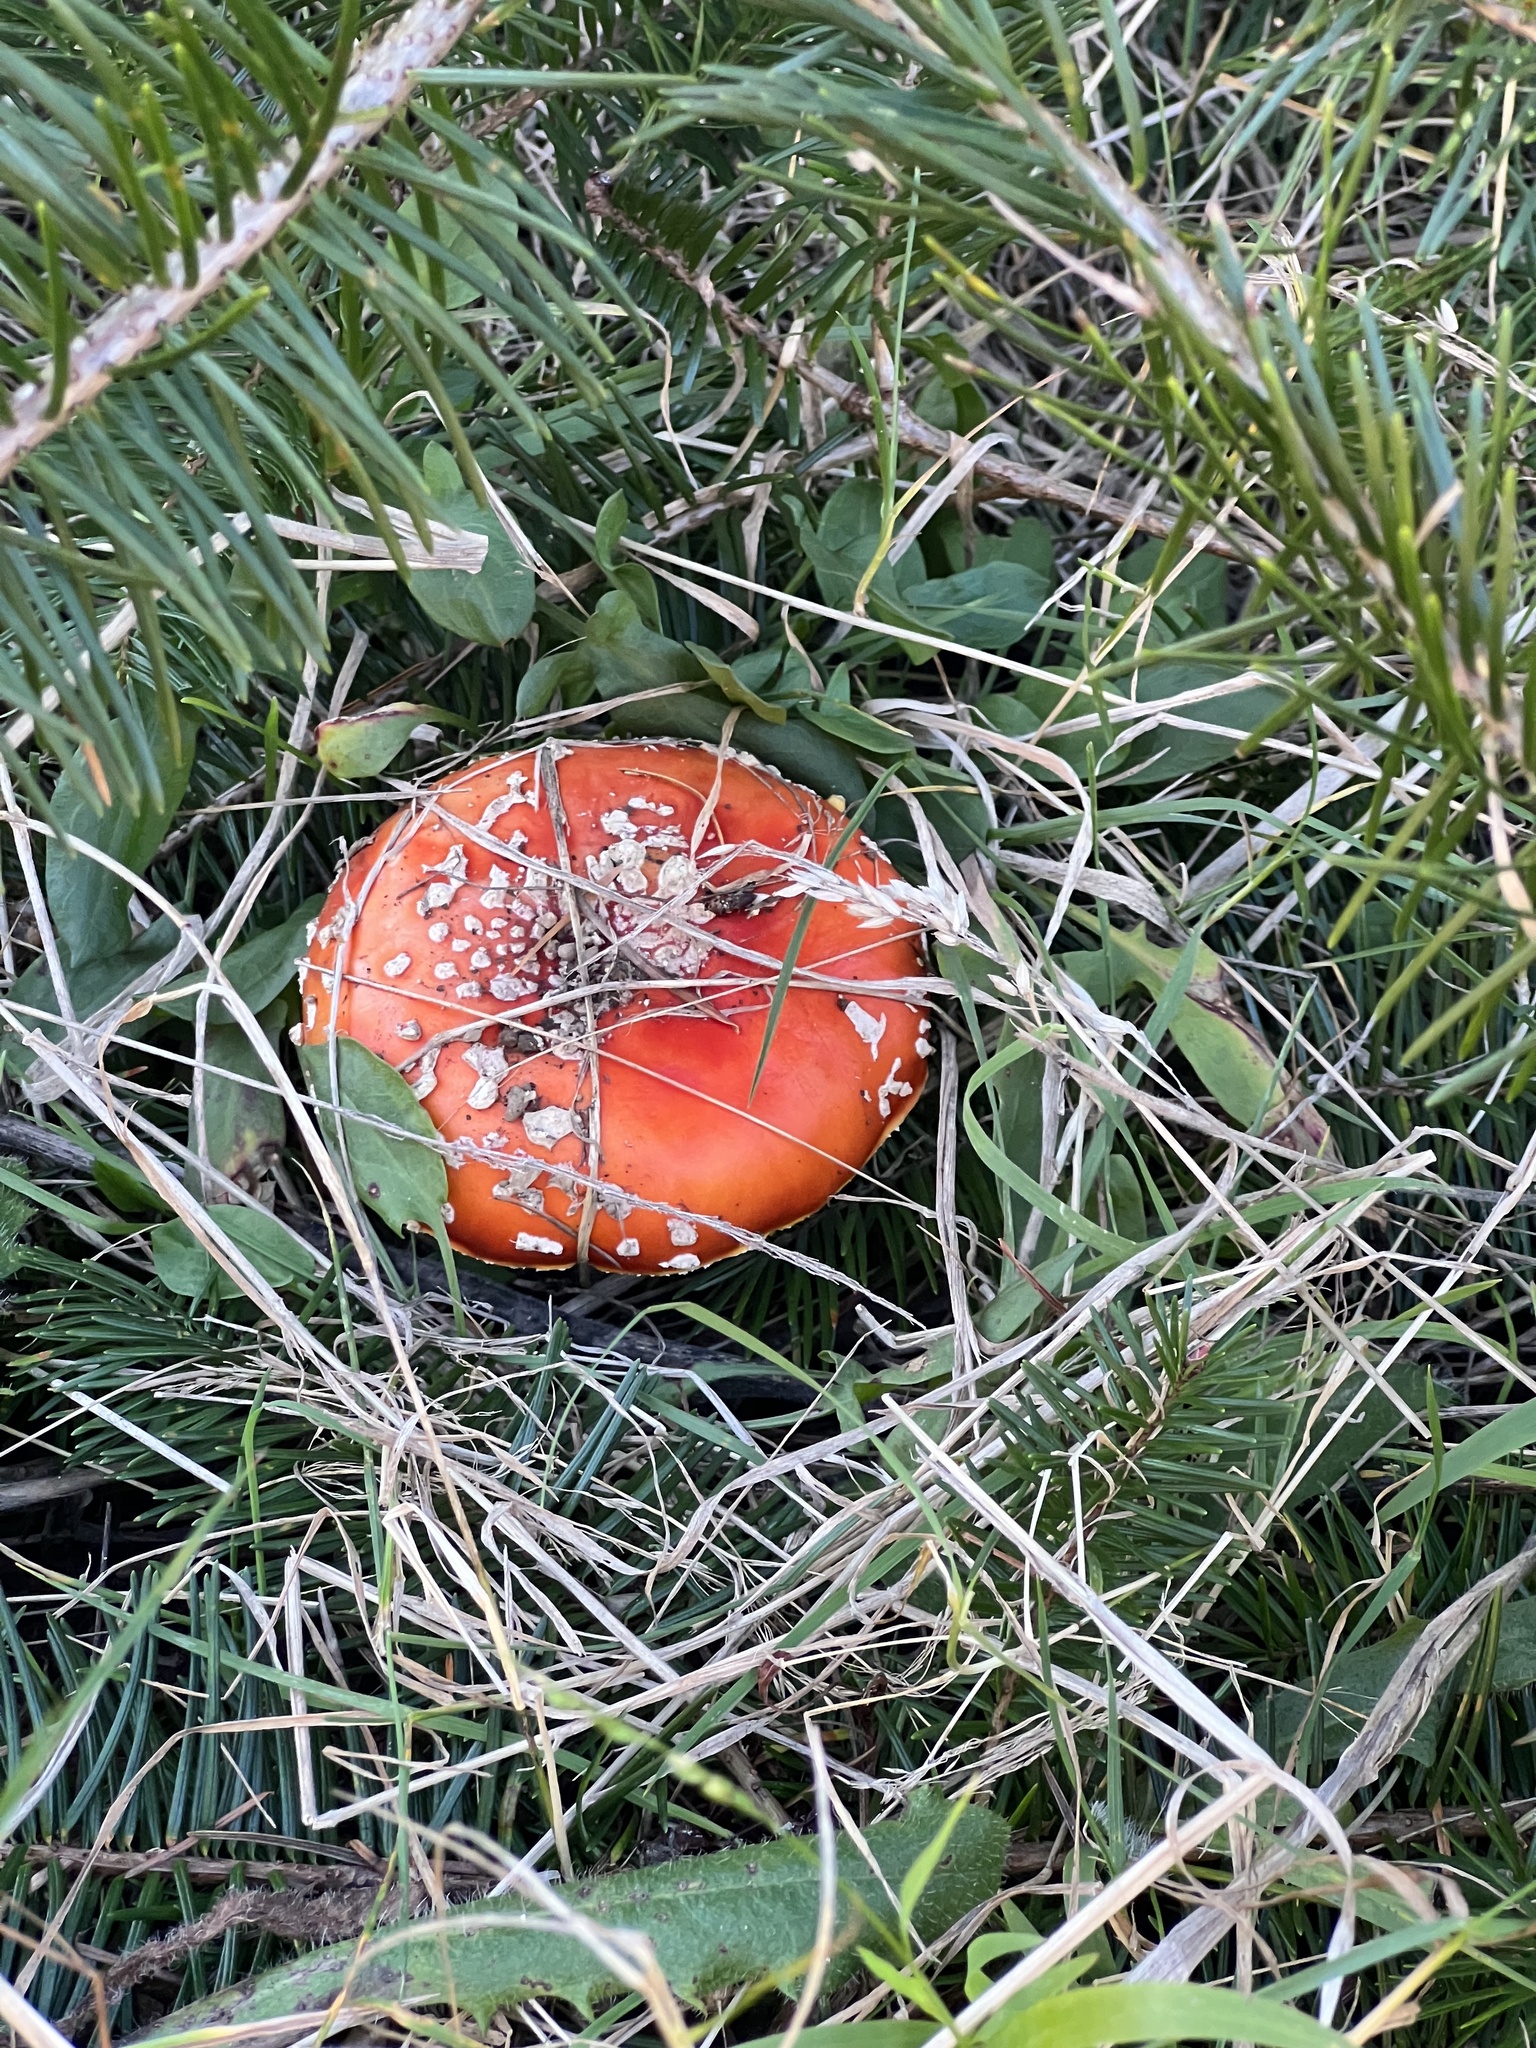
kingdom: Fungi
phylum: Basidiomycota
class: Agaricomycetes
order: Agaricales
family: Amanitaceae
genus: Amanita
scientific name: Amanita muscaria
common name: Fly agaric
